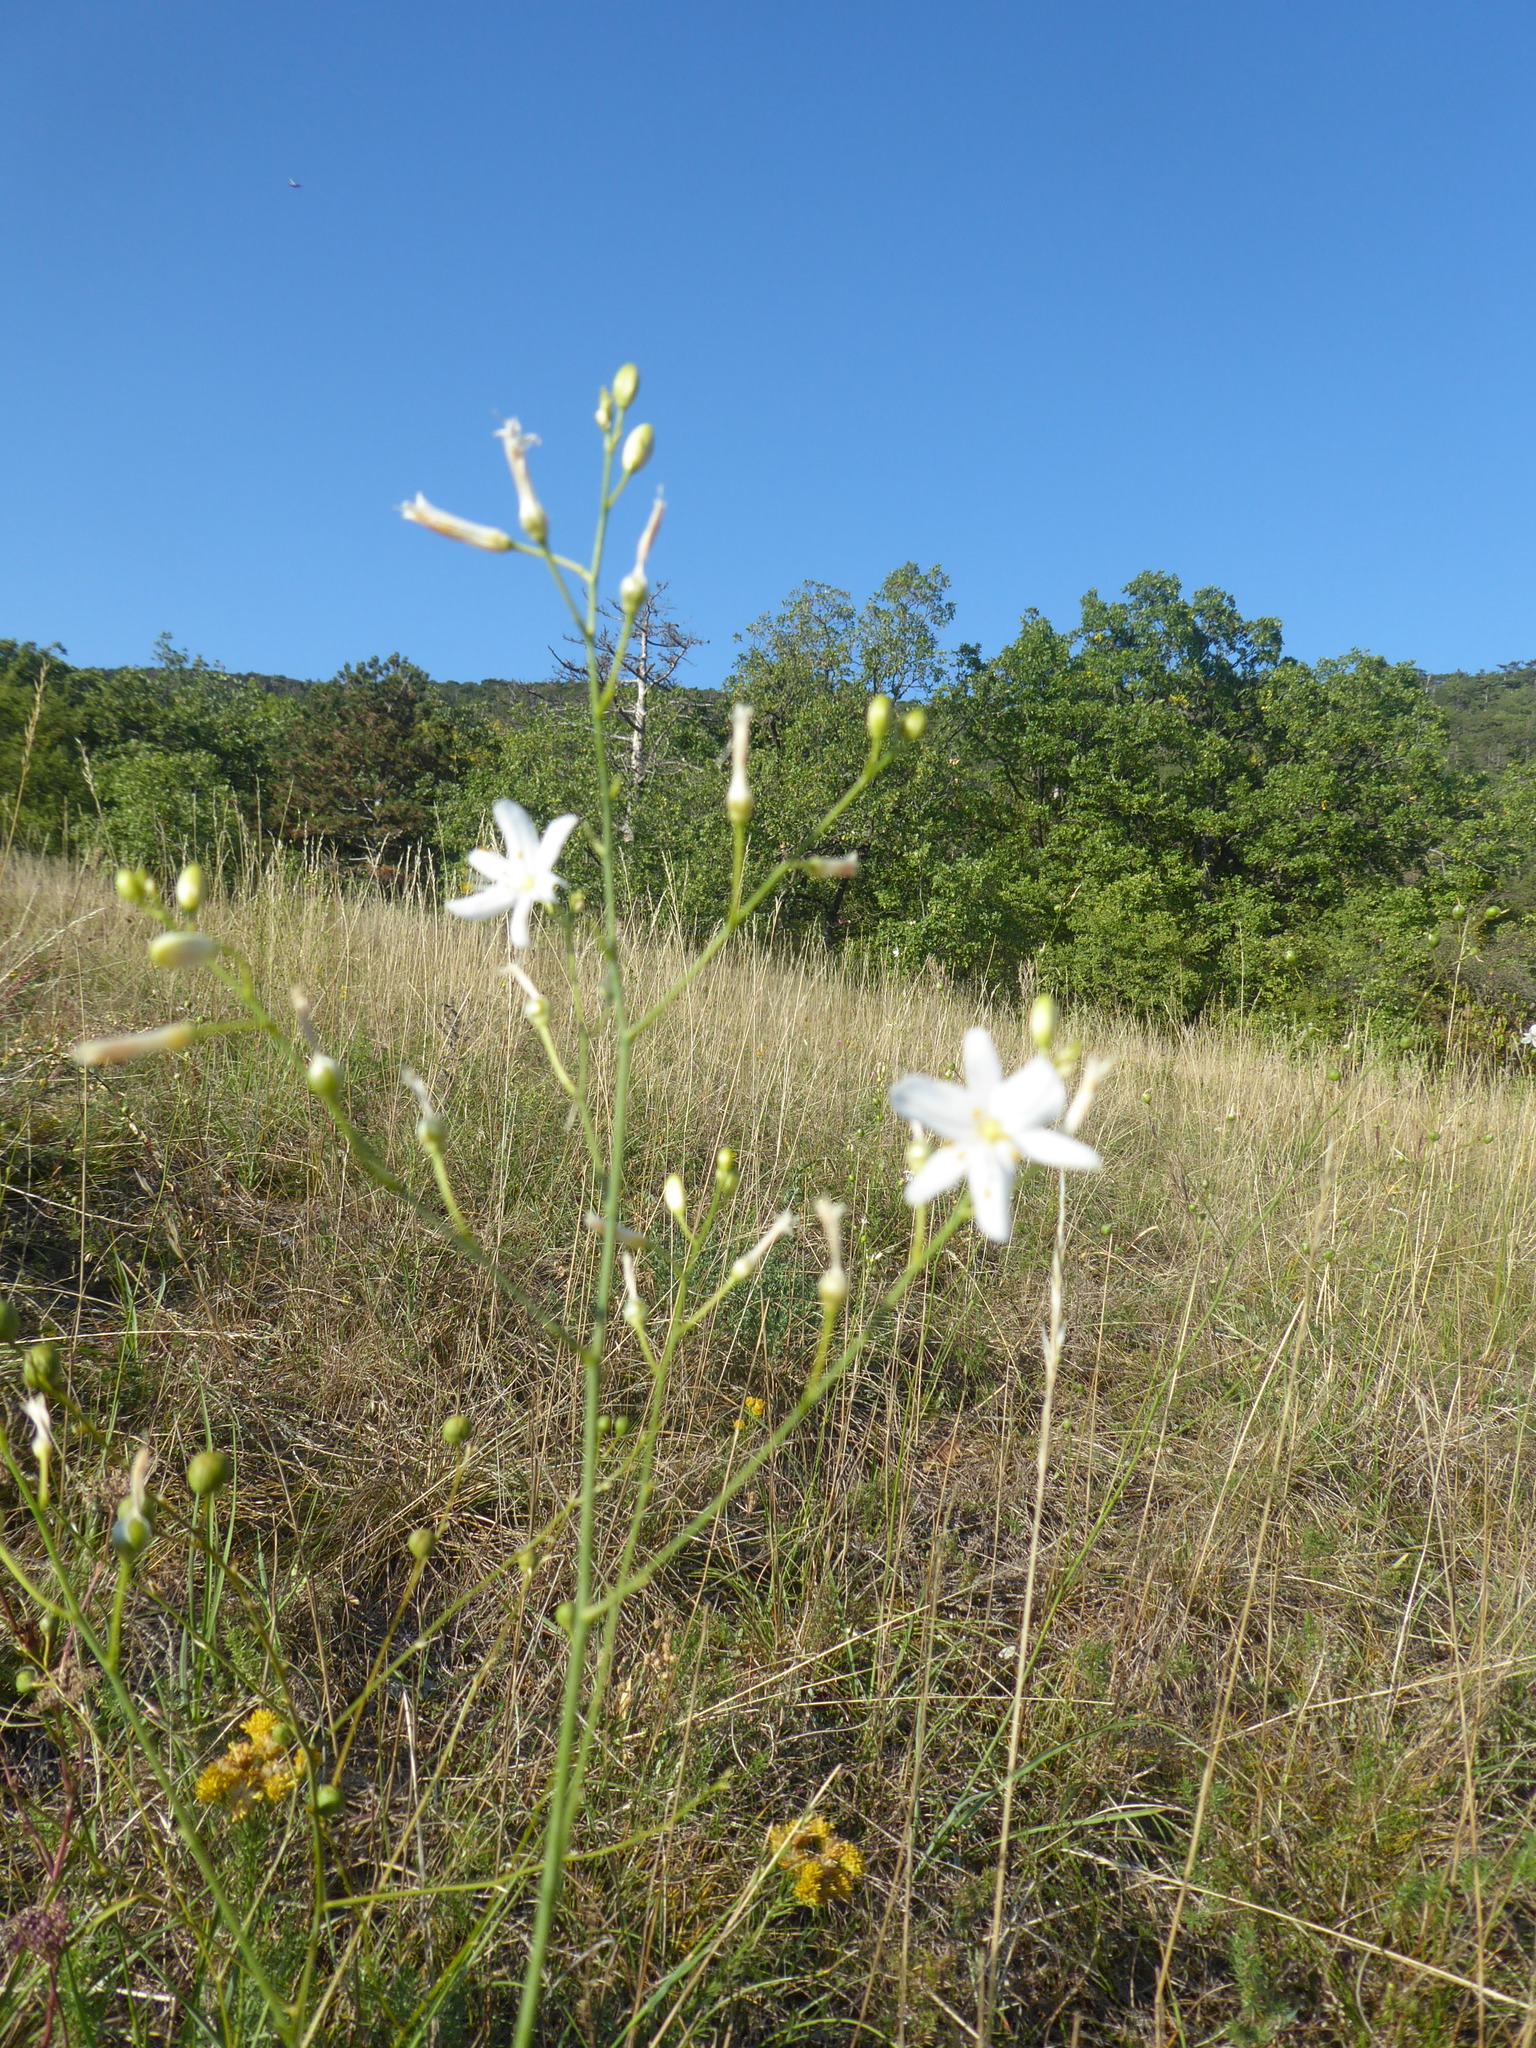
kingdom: Plantae
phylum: Tracheophyta
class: Liliopsida
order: Asparagales
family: Asparagaceae
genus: Anthericum
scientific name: Anthericum ramosum
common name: Branched st. bernard's-lily
